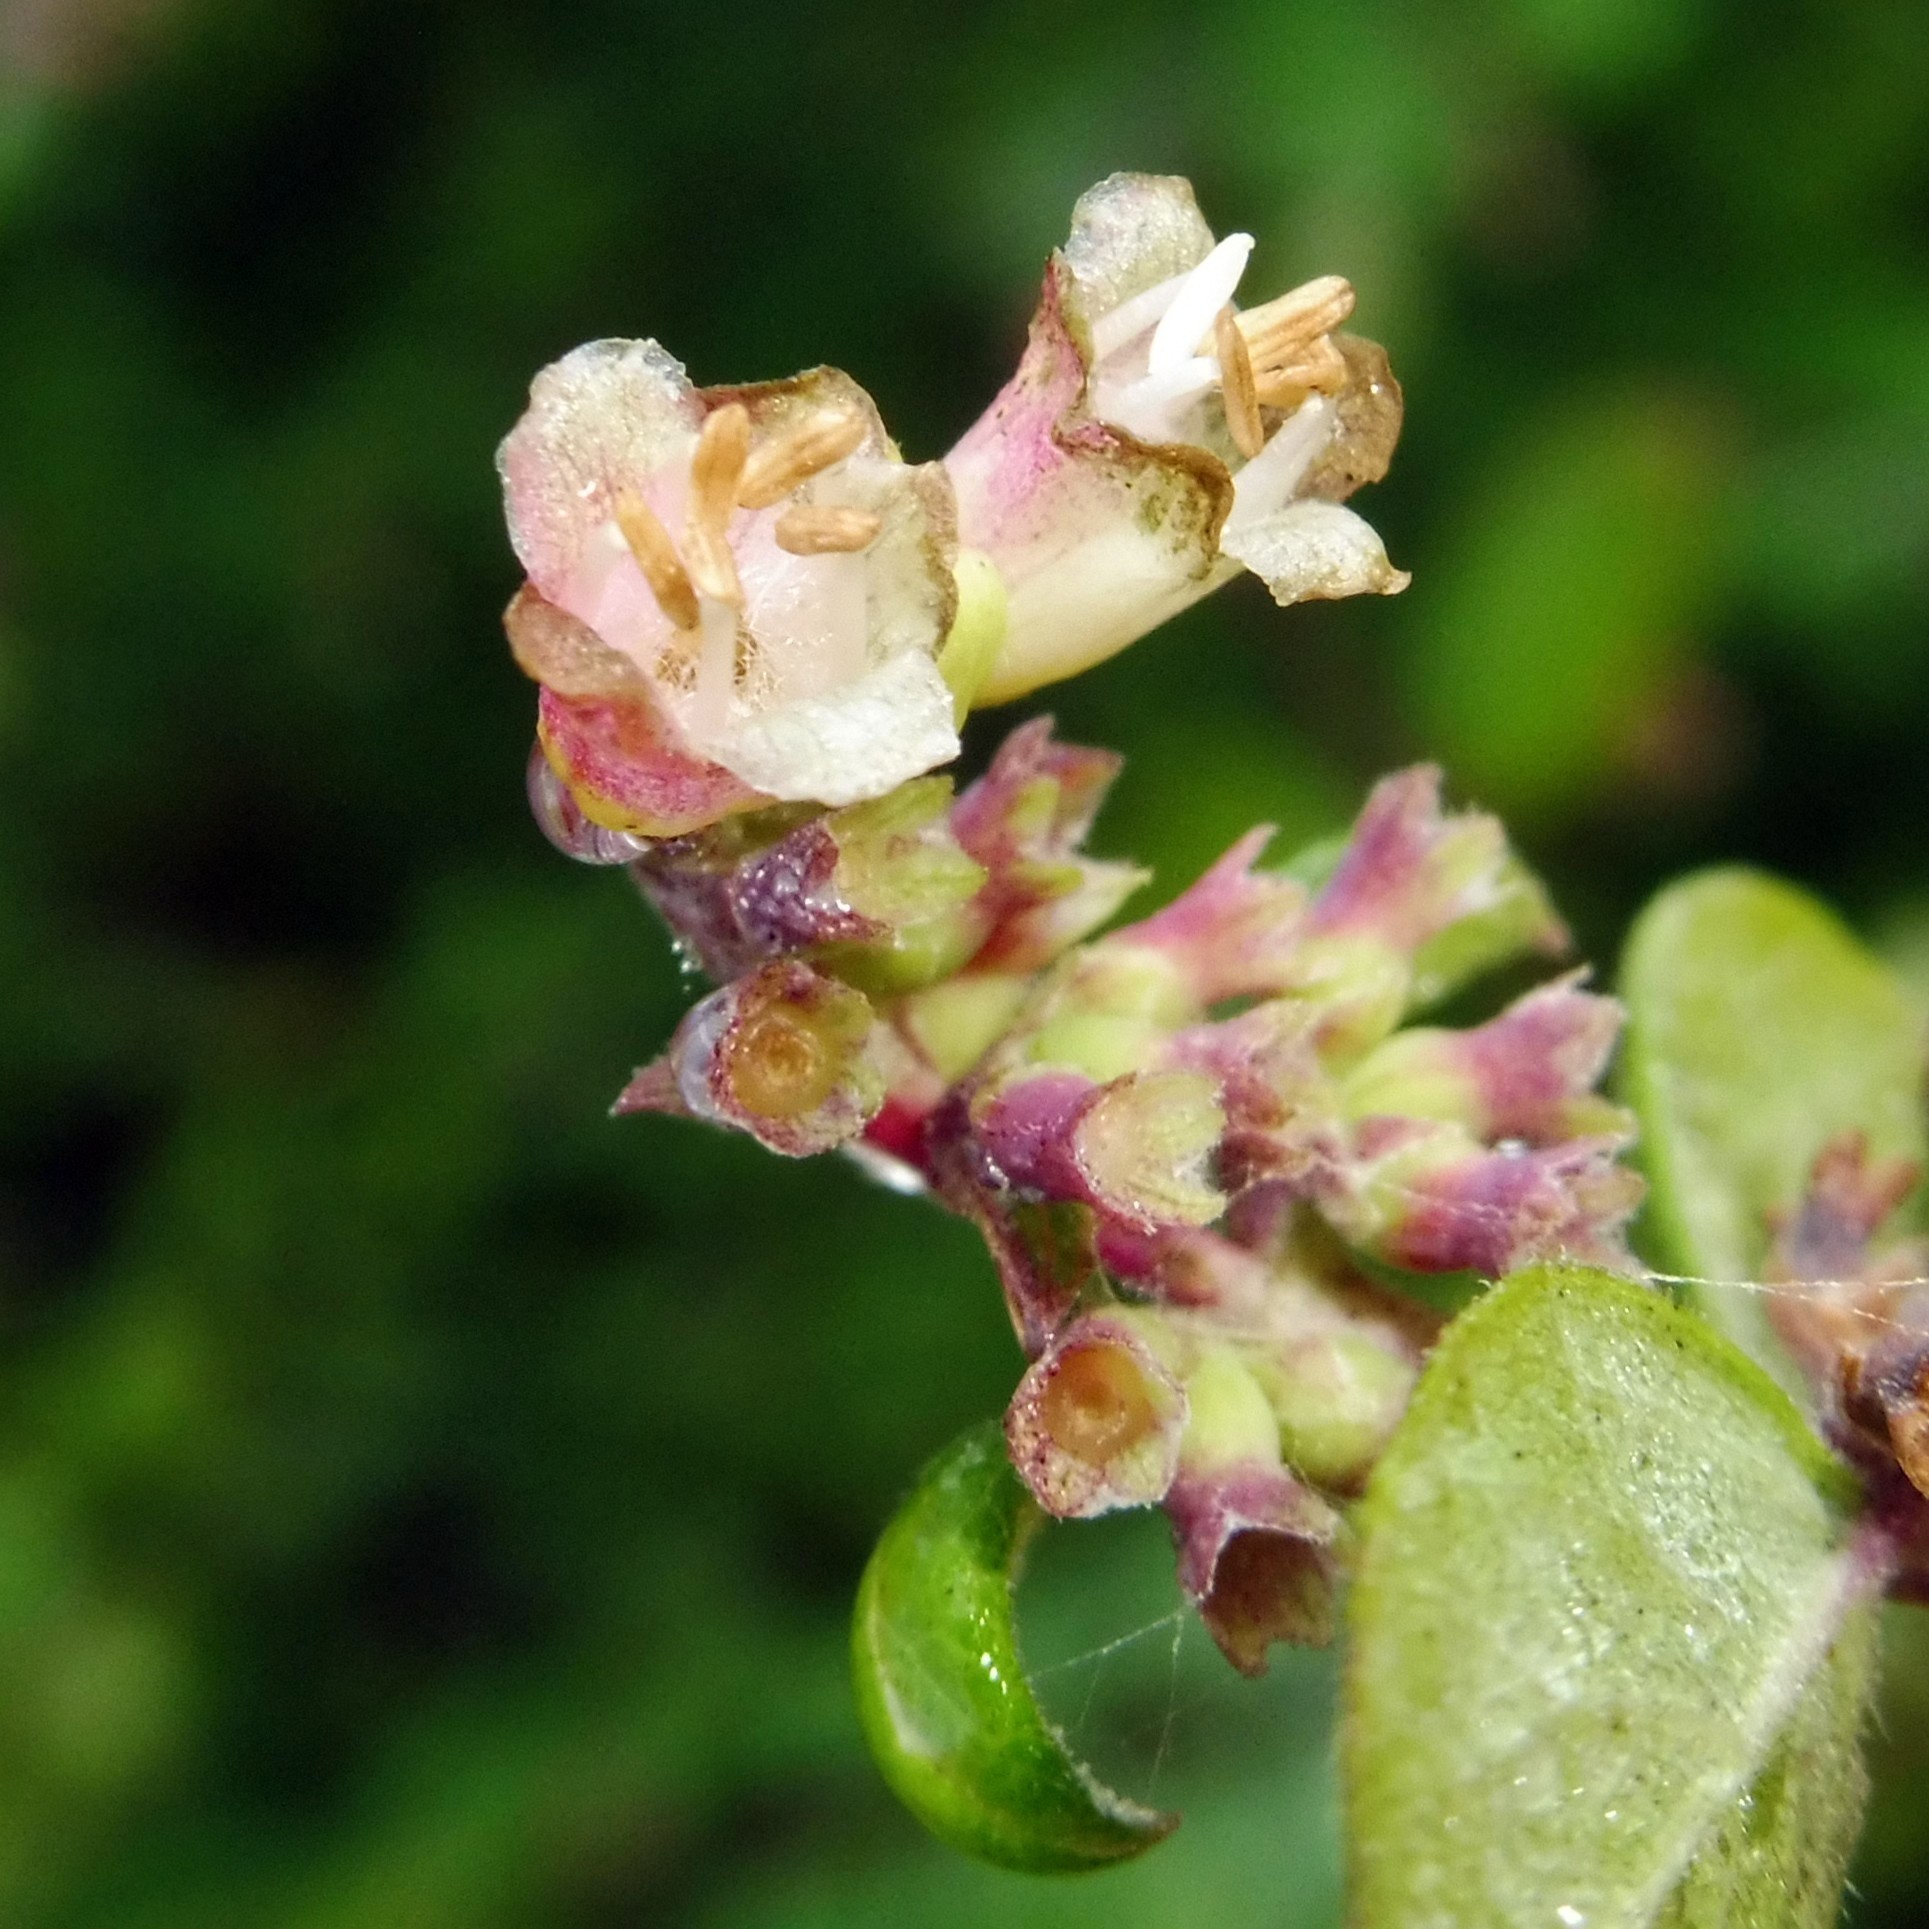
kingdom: Plantae
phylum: Tracheophyta
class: Magnoliopsida
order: Dipsacales
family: Caprifoliaceae
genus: Symphoricarpos
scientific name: Symphoricarpos chenaultii
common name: Hybrid coralberry
